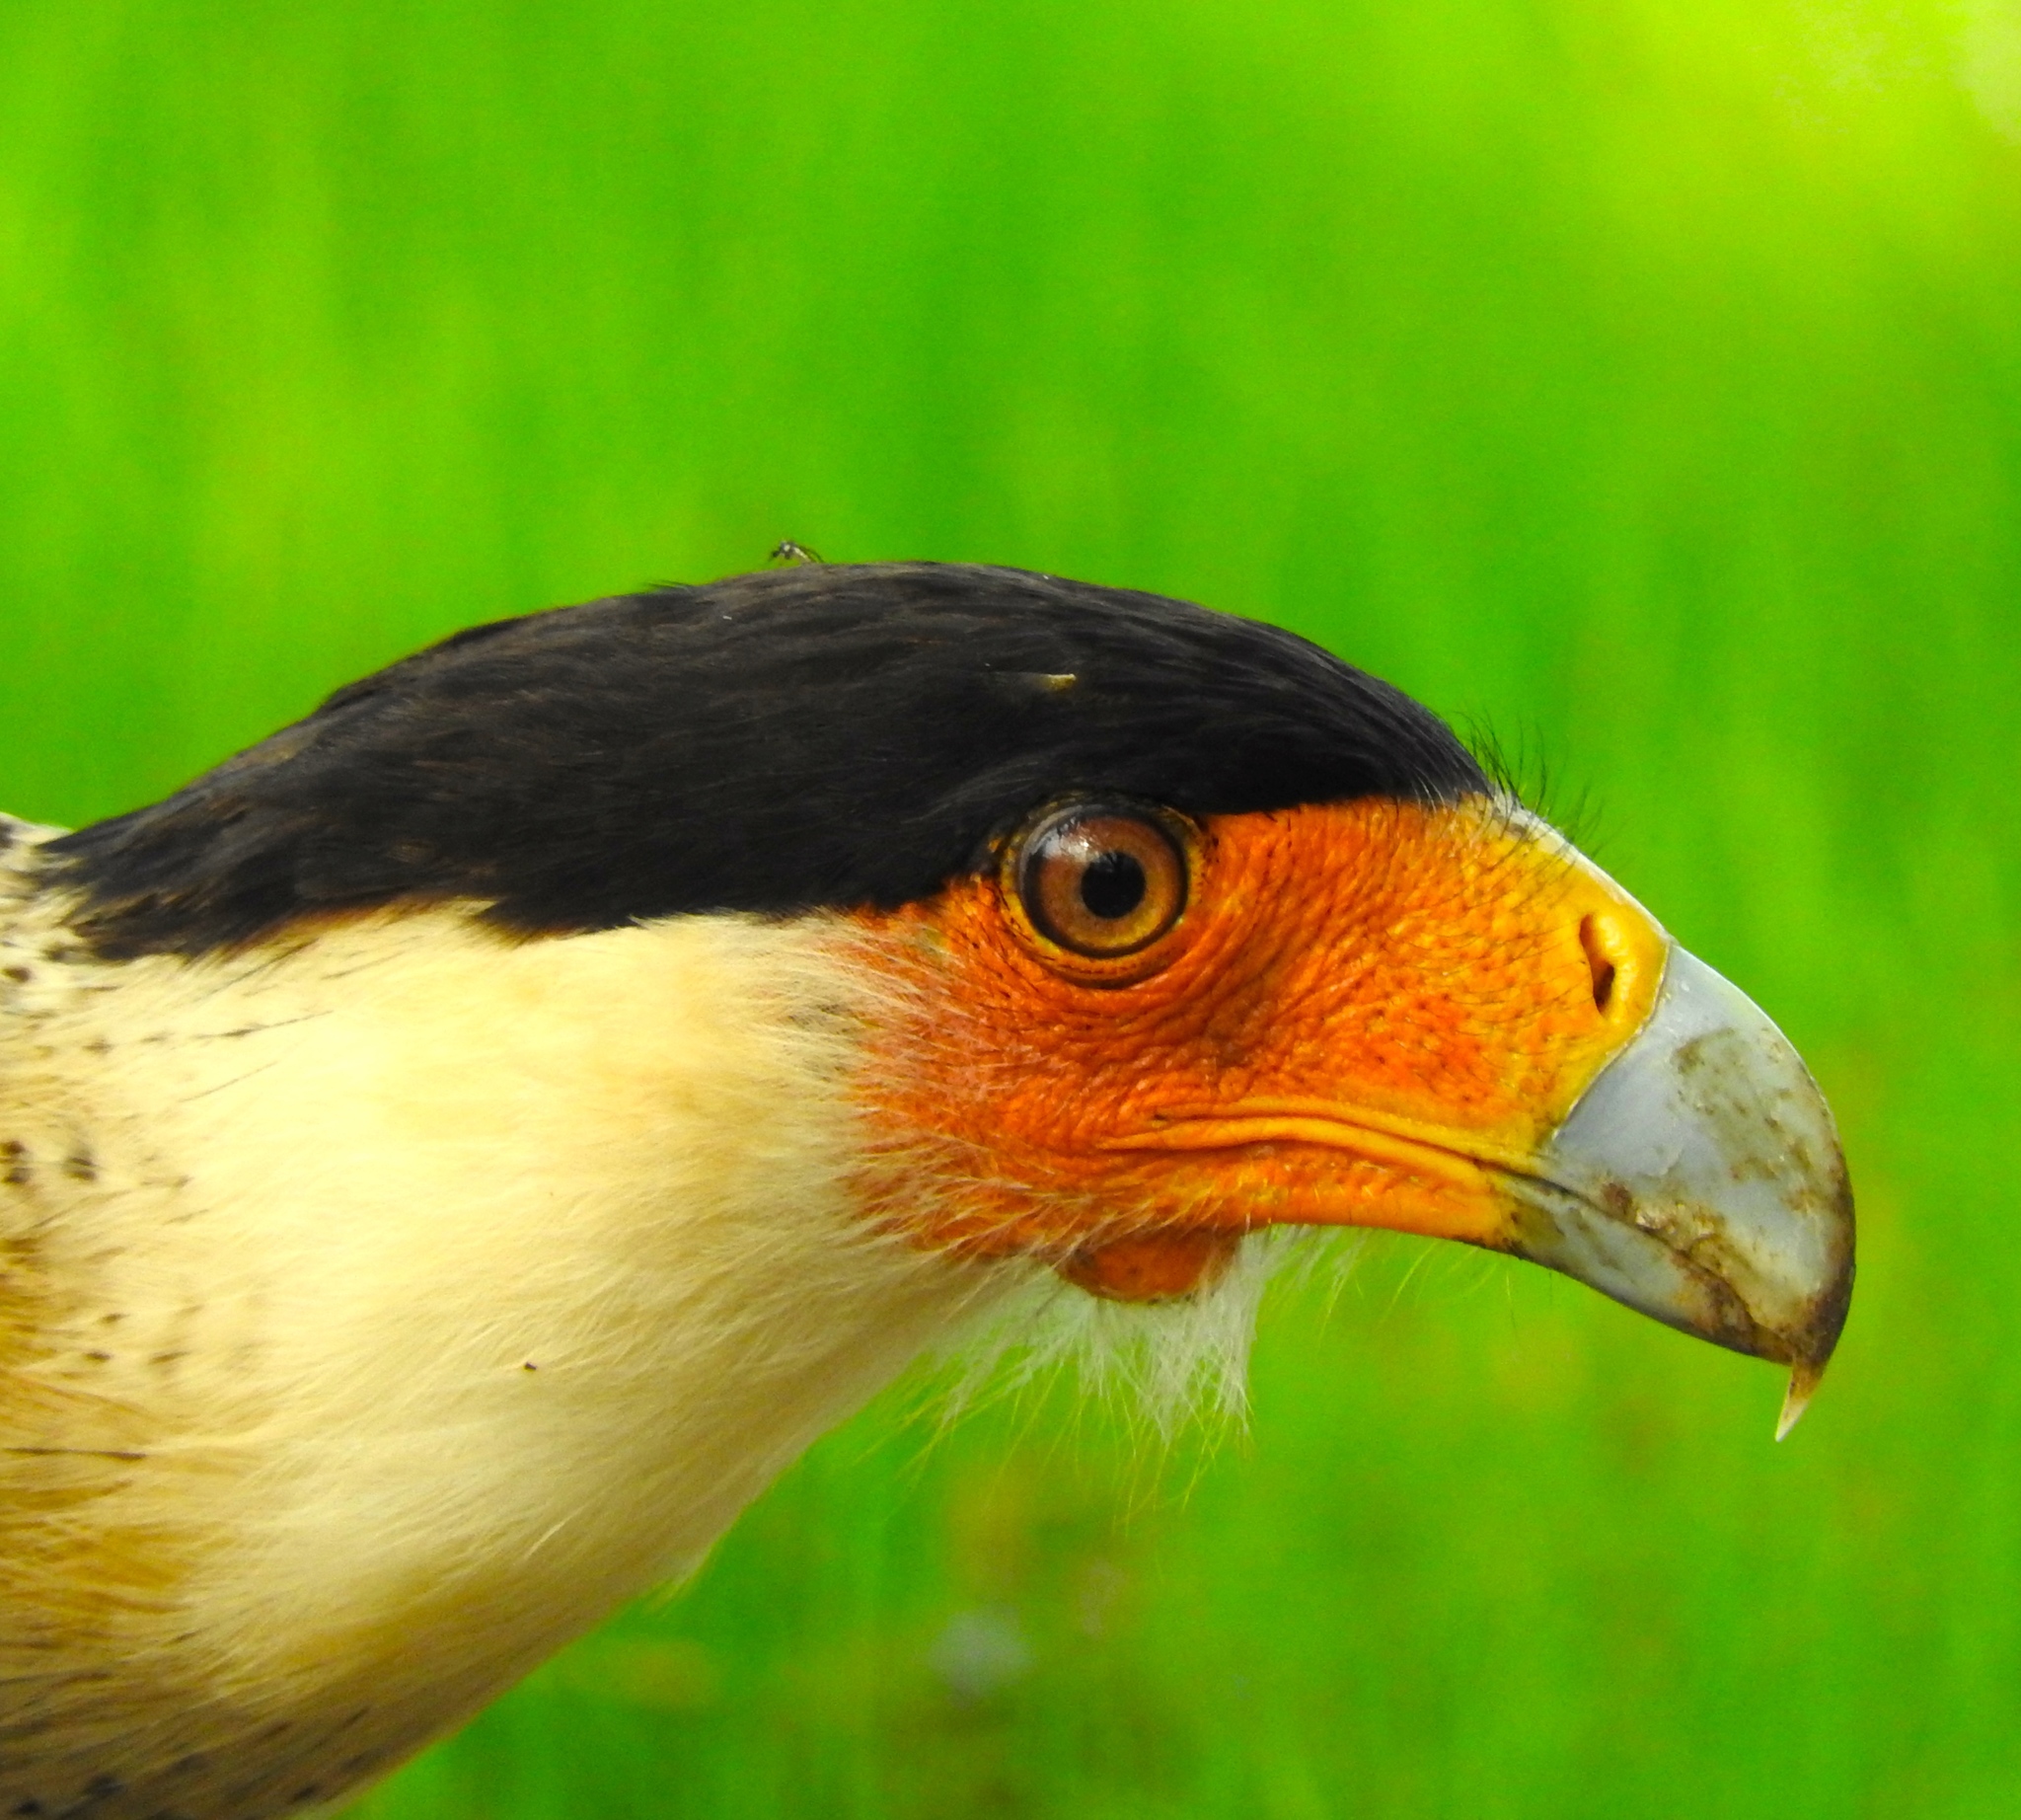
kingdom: Animalia
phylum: Chordata
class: Aves
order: Falconiformes
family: Falconidae
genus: Caracara
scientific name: Caracara plancus
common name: Southern caracara
